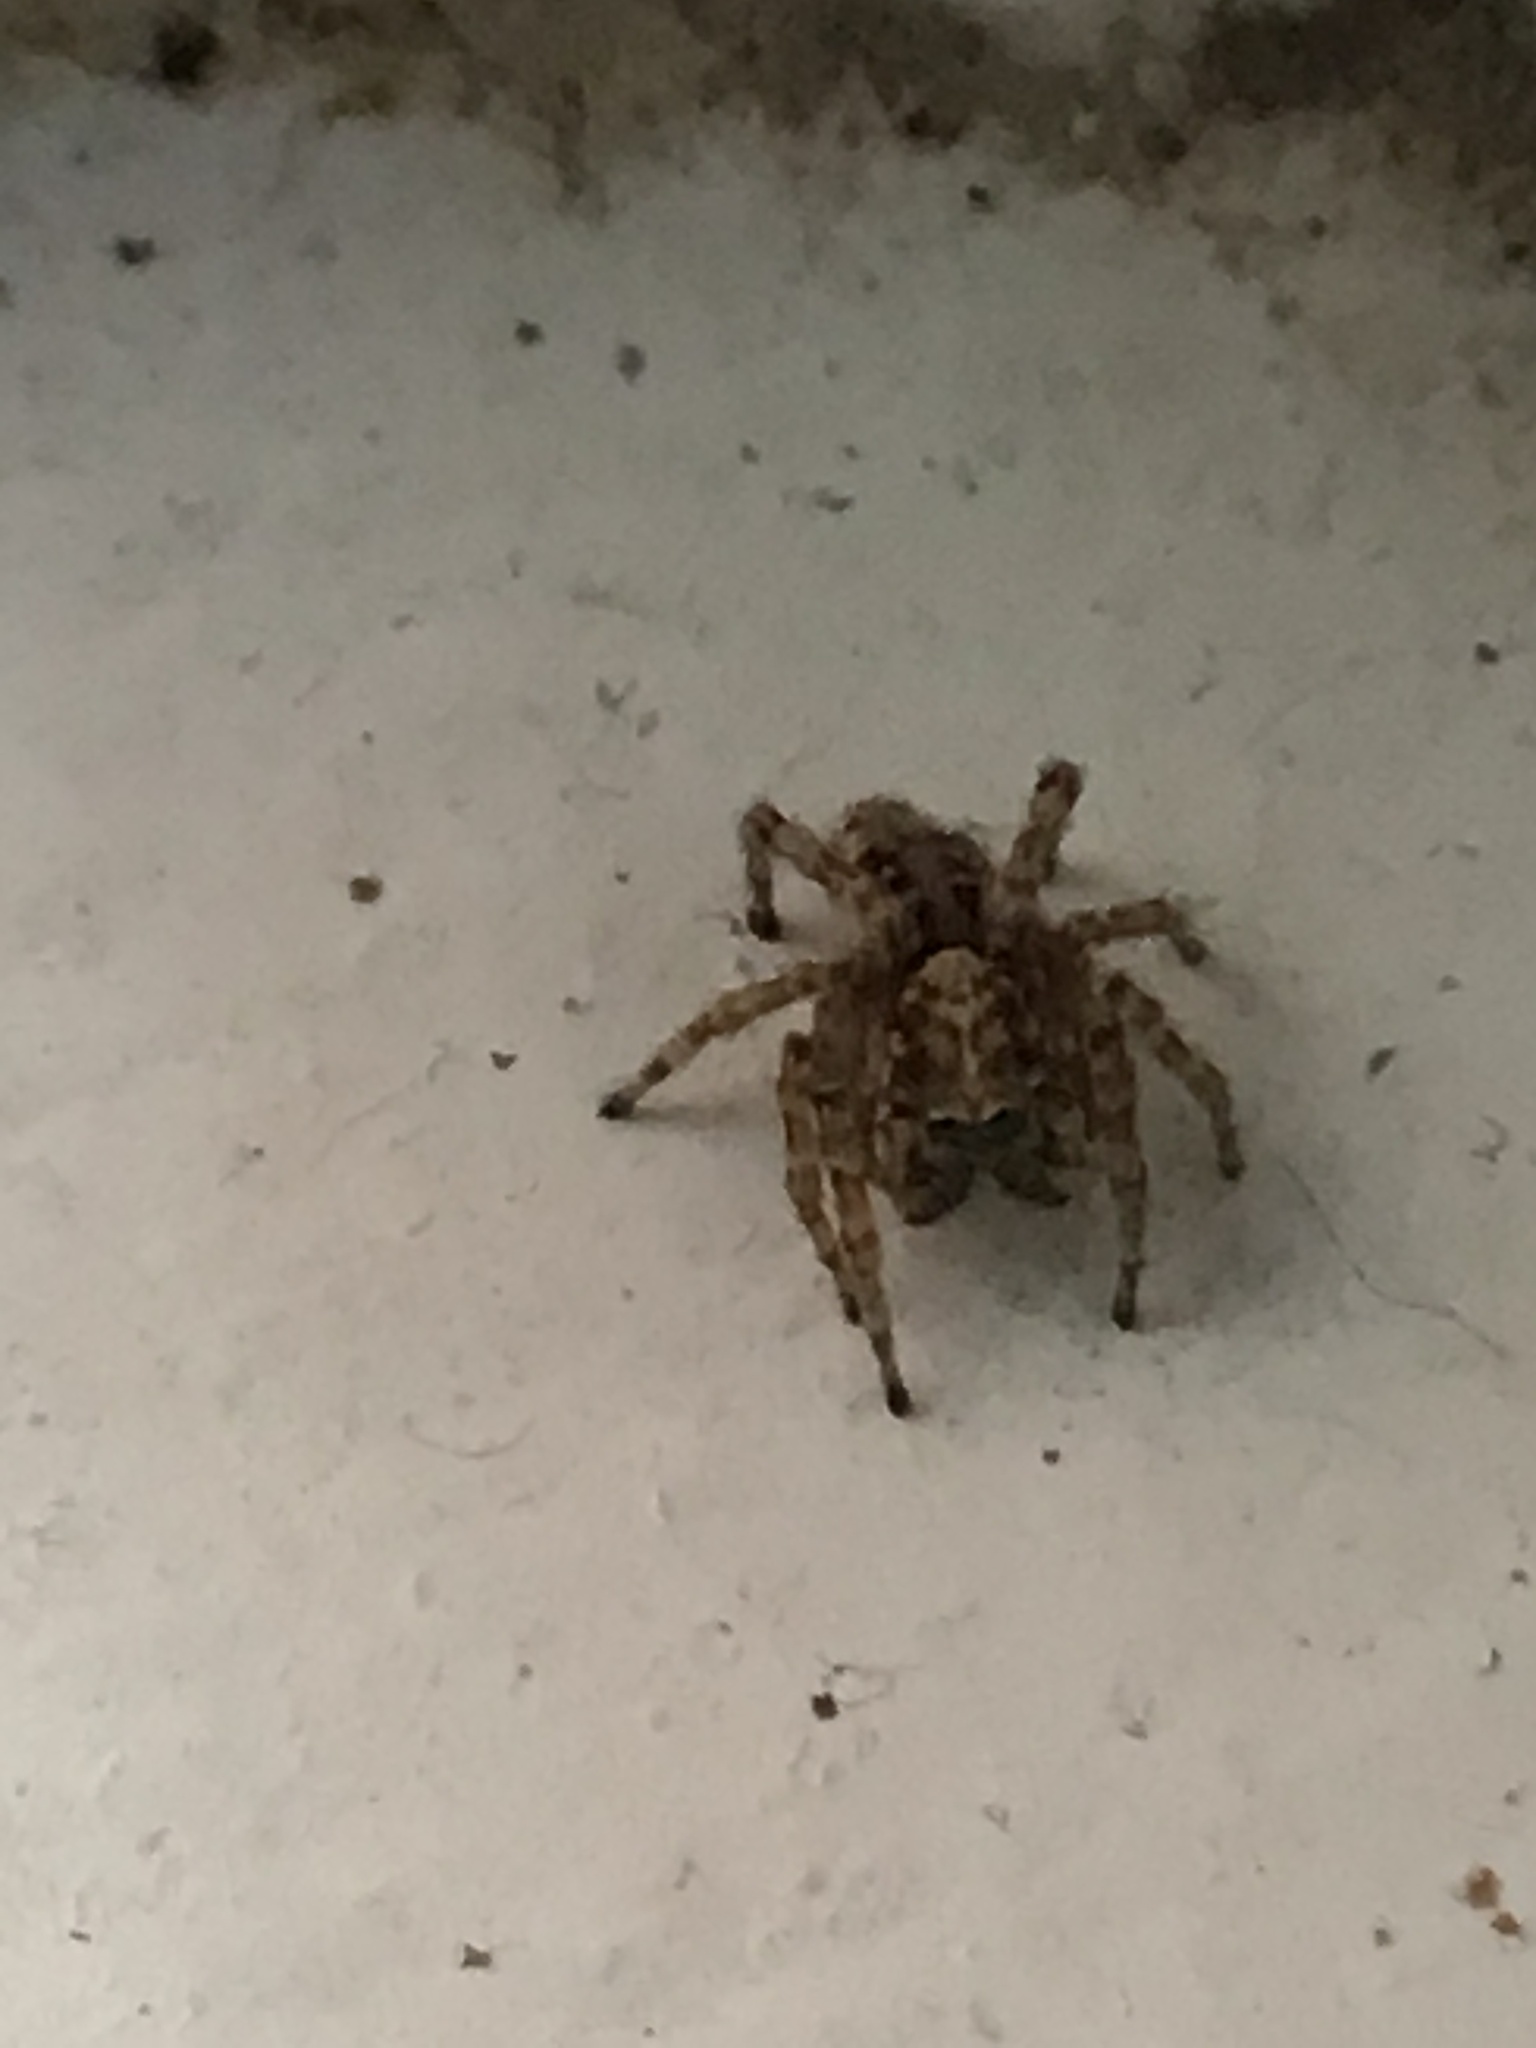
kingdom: Animalia
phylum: Arthropoda
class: Arachnida
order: Araneae
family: Salticidae
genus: Attulus
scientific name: Attulus fasciger
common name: Asiatic wall jumping spider
